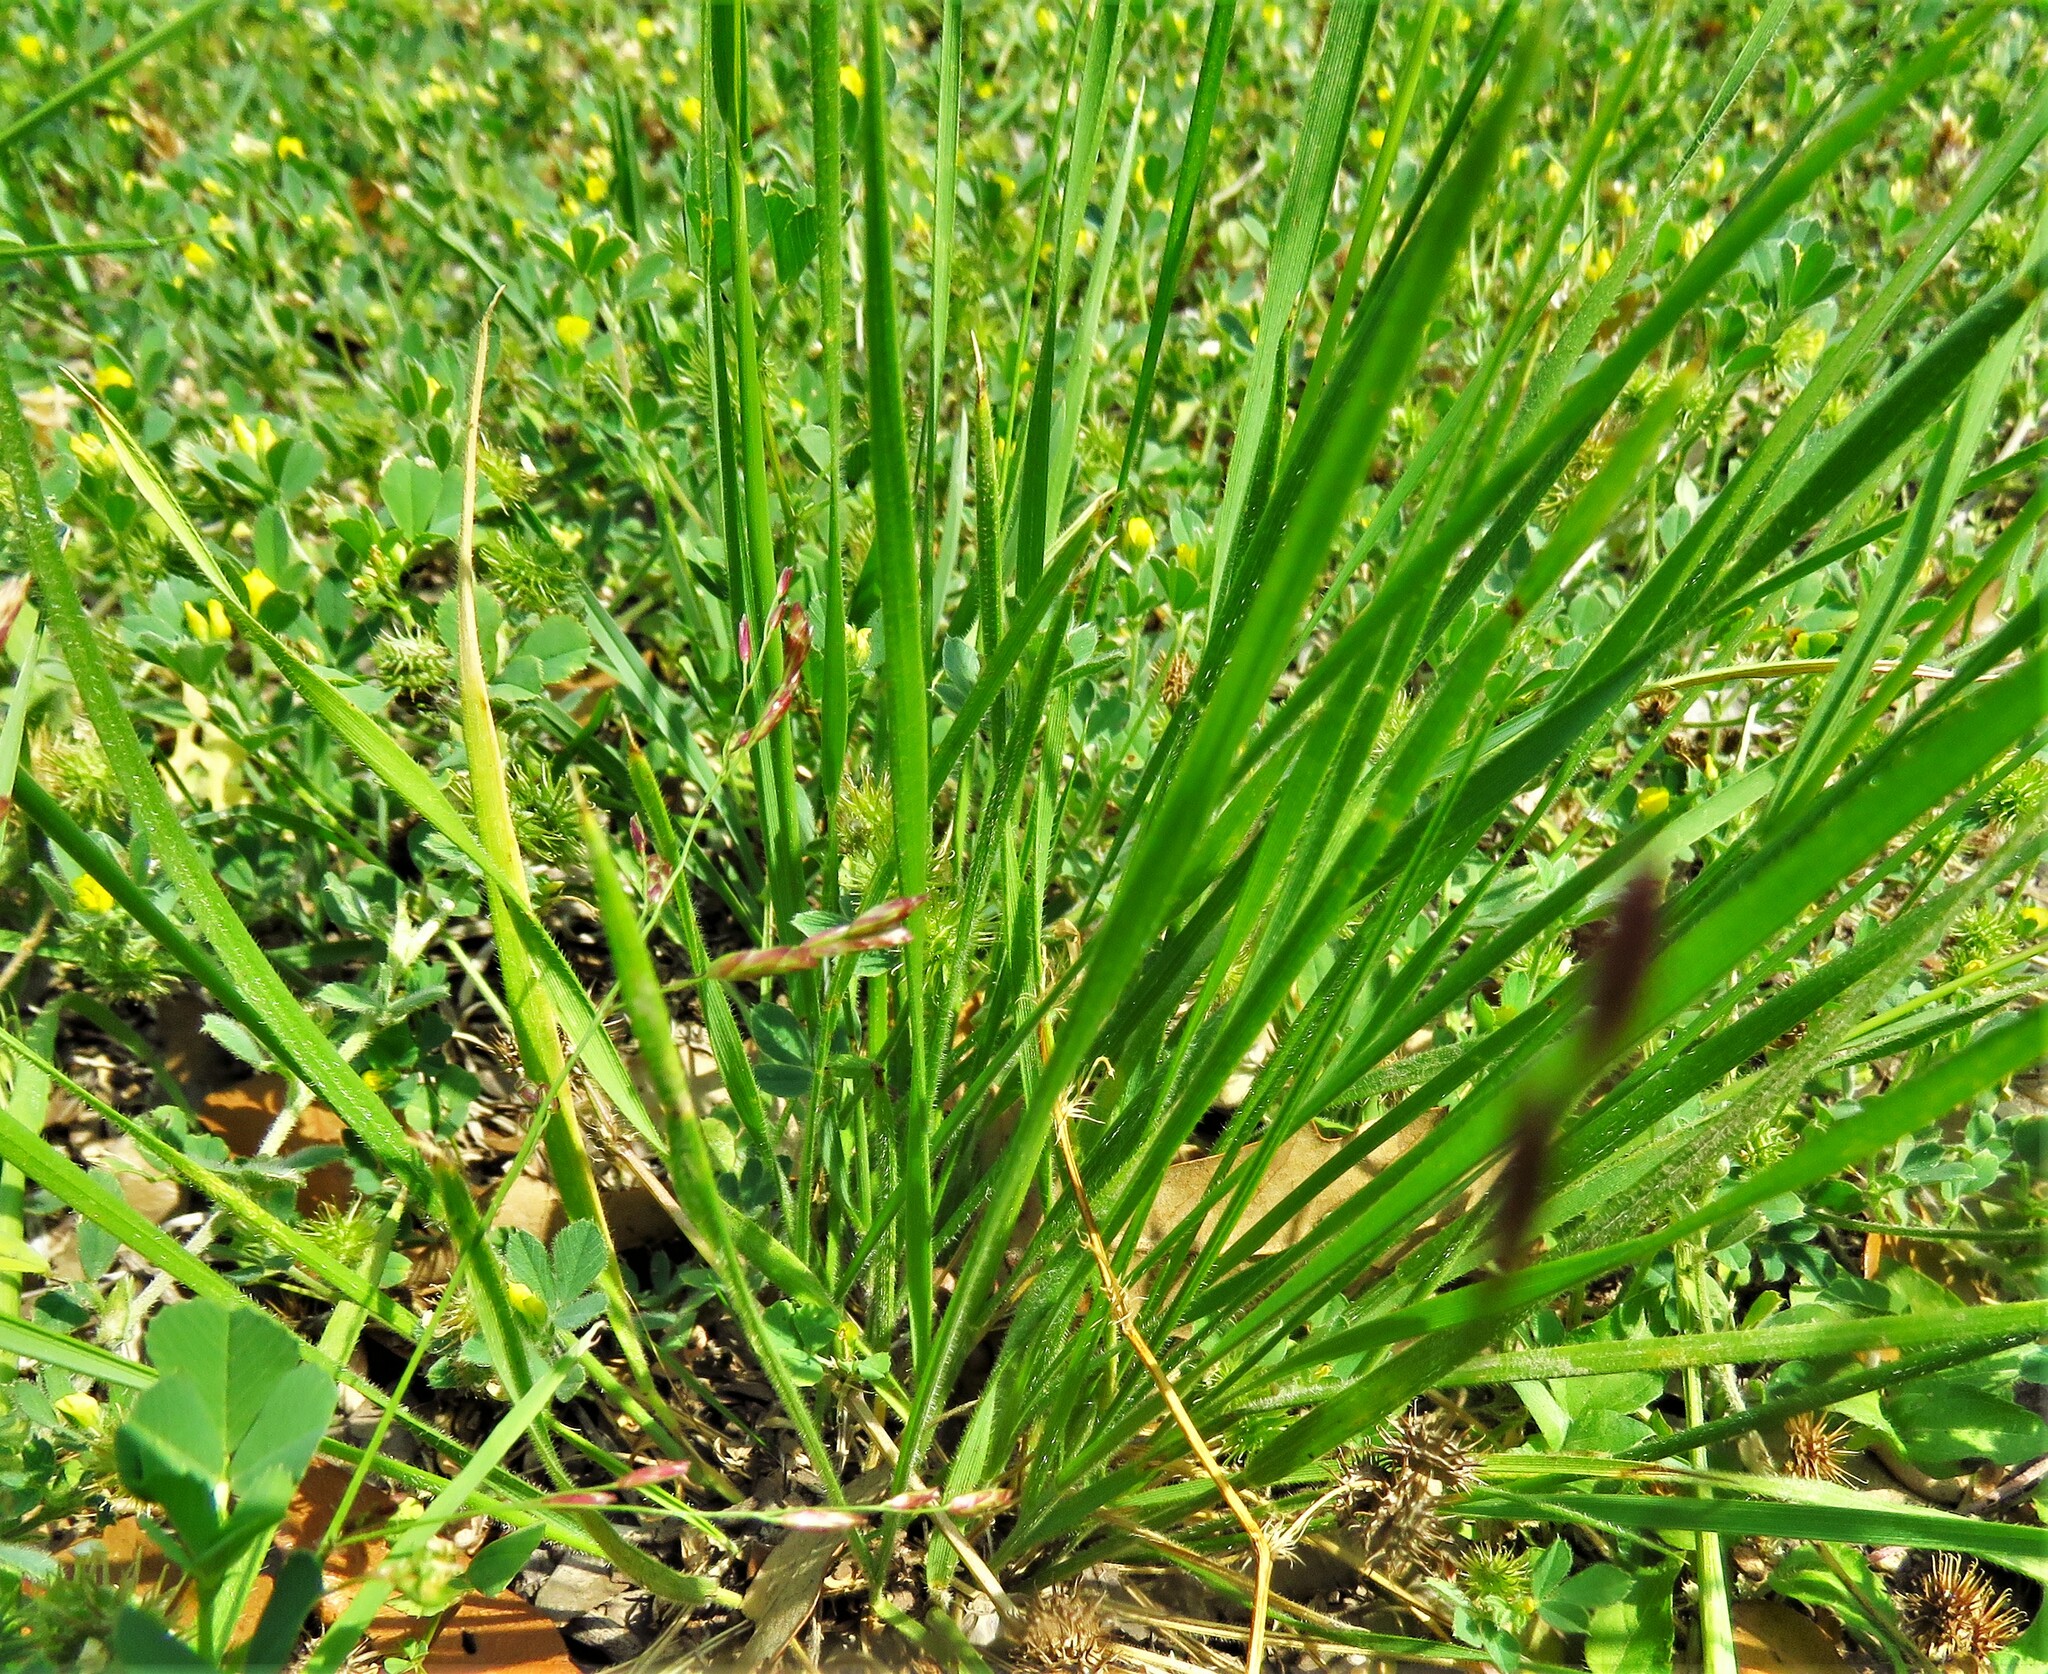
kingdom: Plantae
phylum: Tracheophyta
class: Liliopsida
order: Poales
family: Poaceae
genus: Nassella
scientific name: Nassella leucotricha
